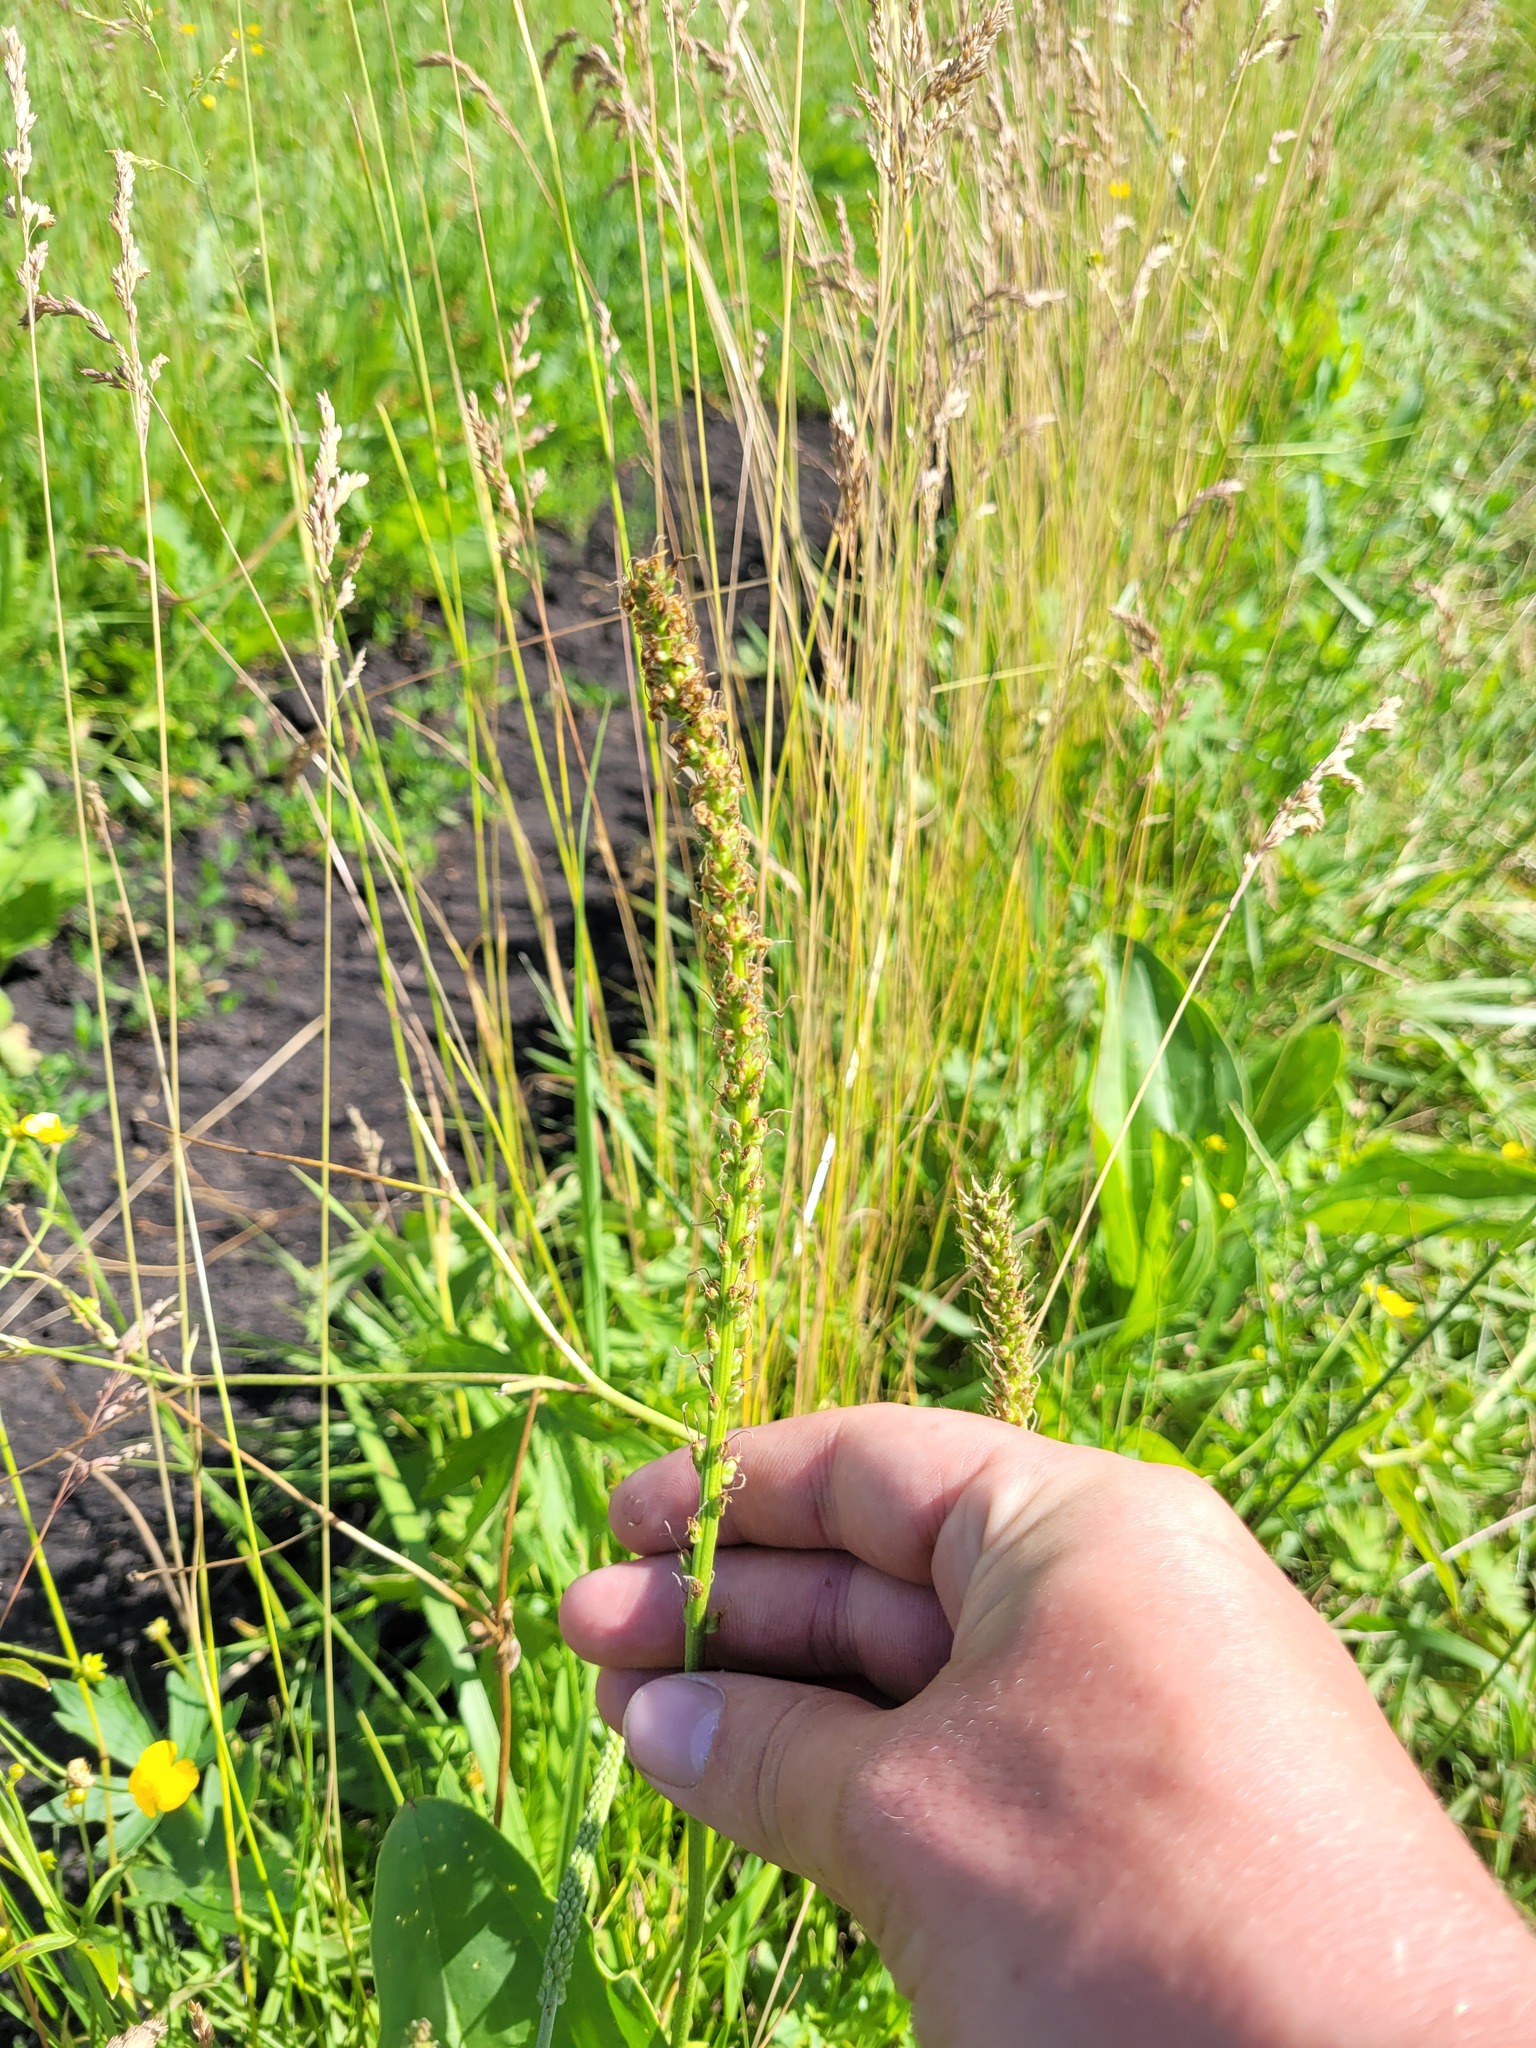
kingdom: Plantae
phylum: Tracheophyta
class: Magnoliopsida
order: Lamiales
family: Plantaginaceae
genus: Plantago
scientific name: Plantago cornuti
